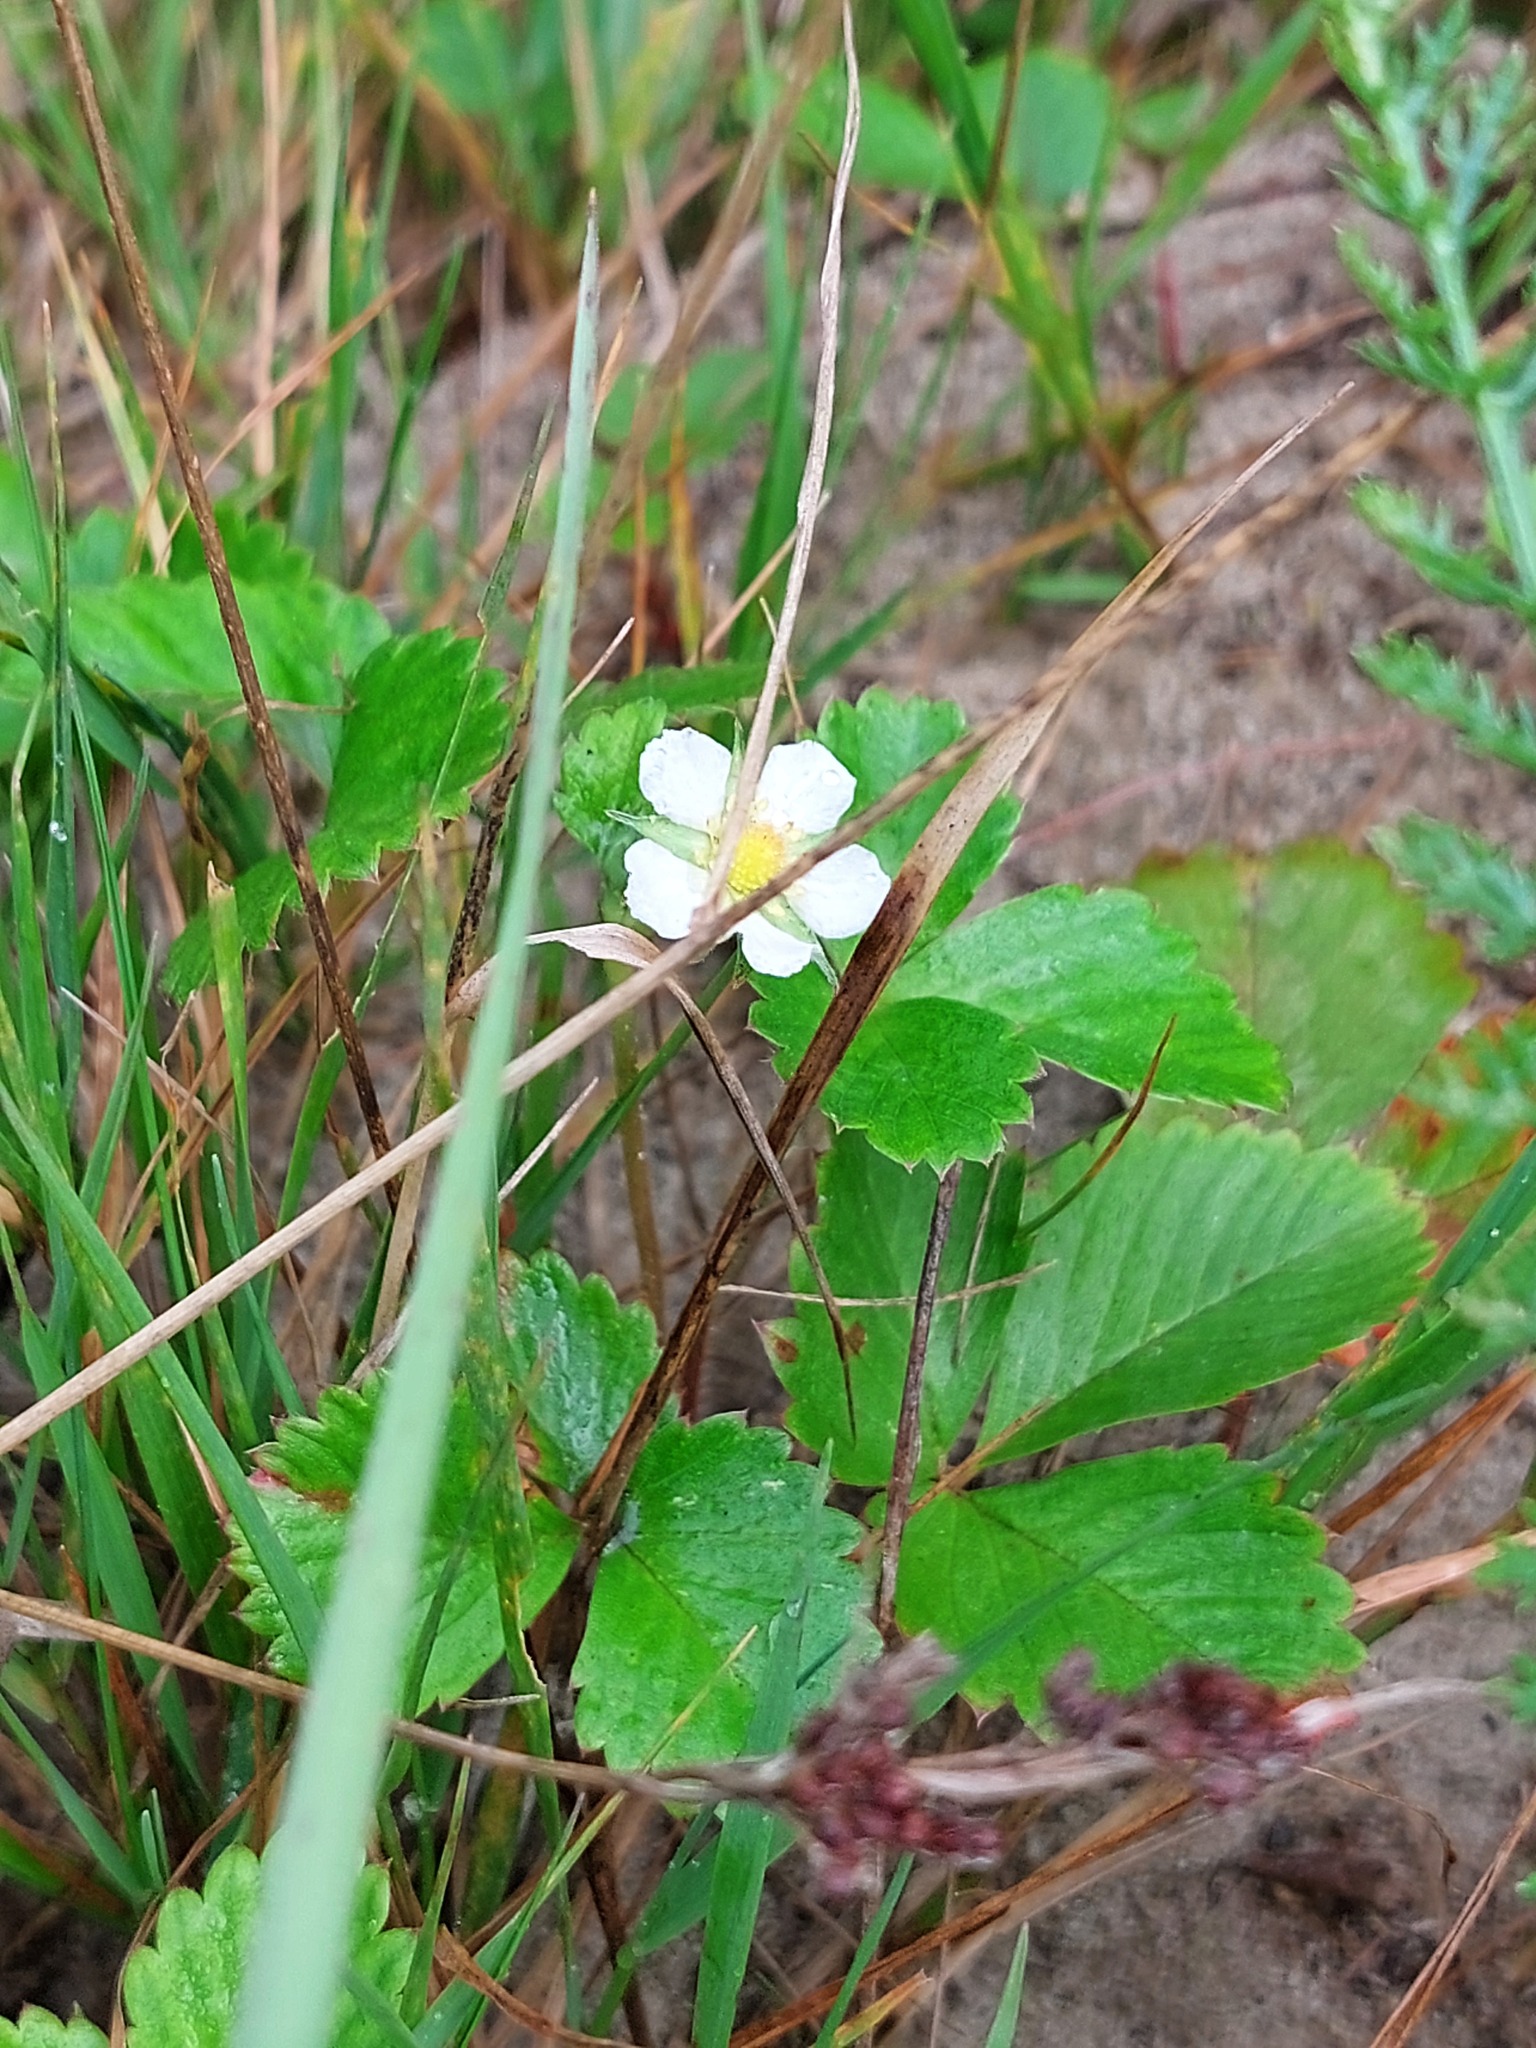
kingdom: Plantae
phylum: Tracheophyta
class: Magnoliopsida
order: Rosales
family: Rosaceae
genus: Fragaria
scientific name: Fragaria vesca
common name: Wild strawberry
